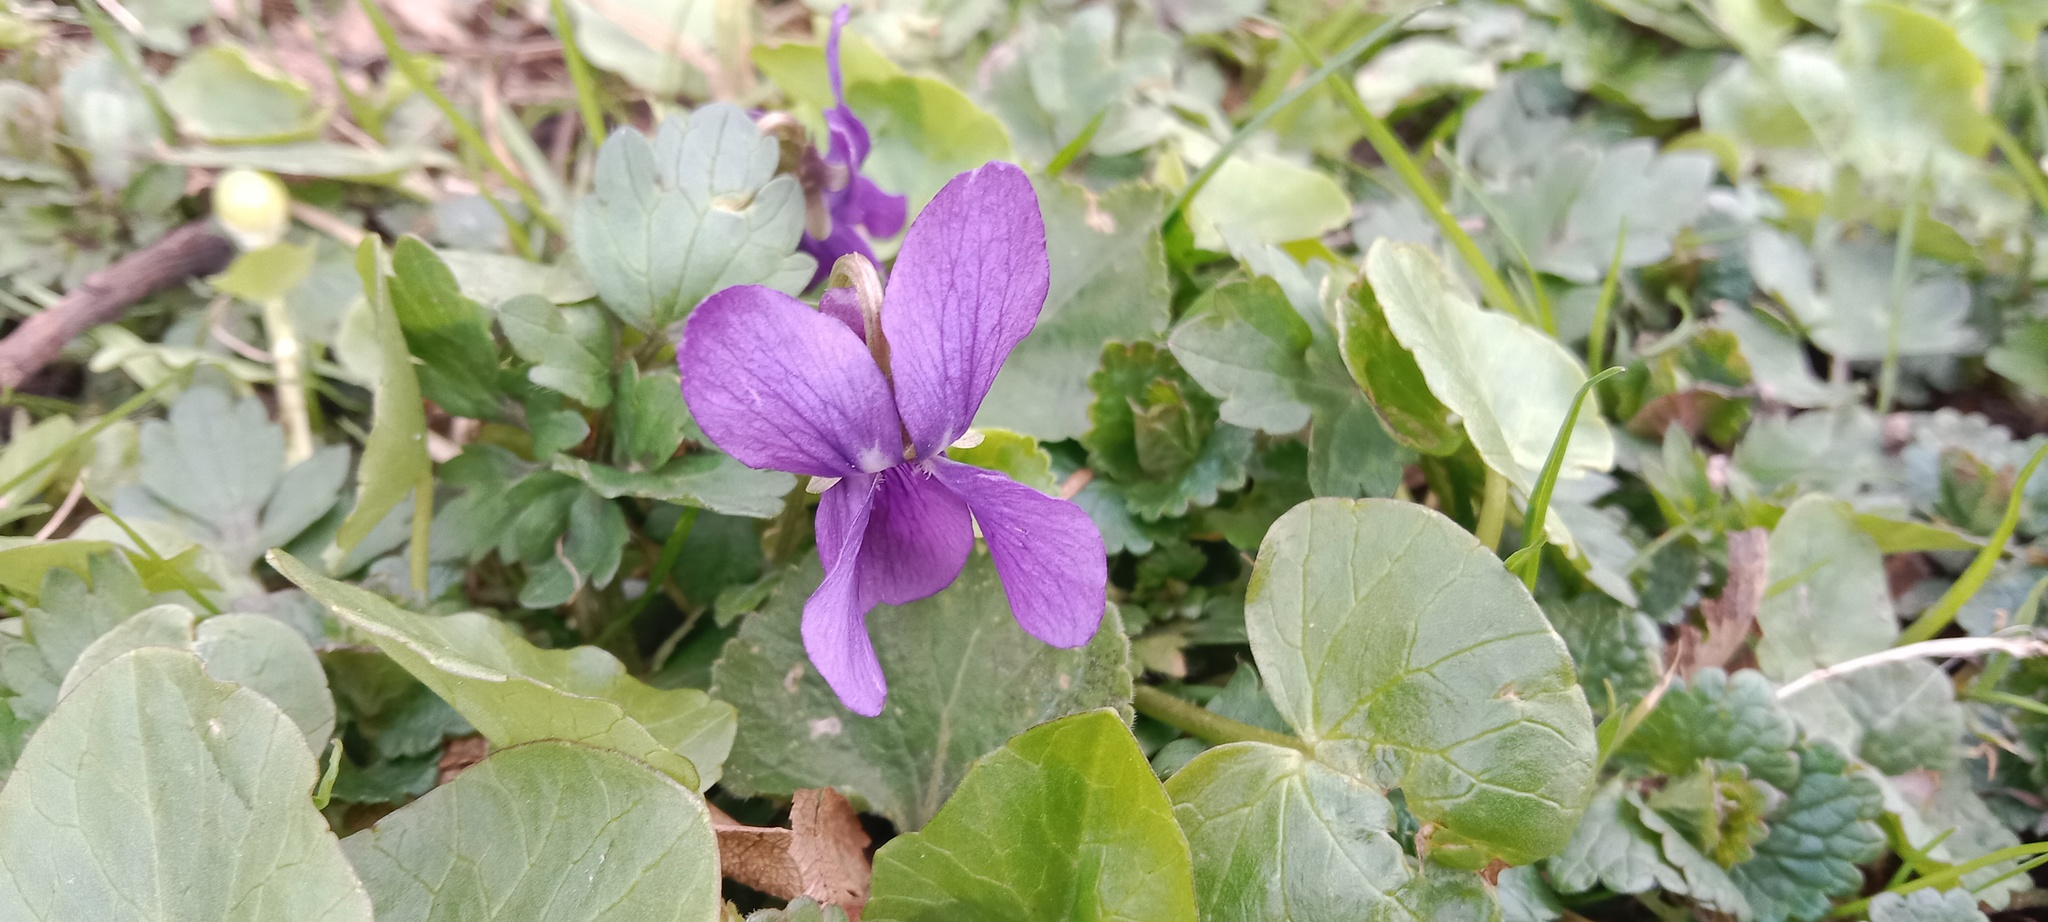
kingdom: Plantae
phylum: Tracheophyta
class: Magnoliopsida
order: Malpighiales
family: Violaceae
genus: Viola
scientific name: Viola odorata
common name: Sweet violet
